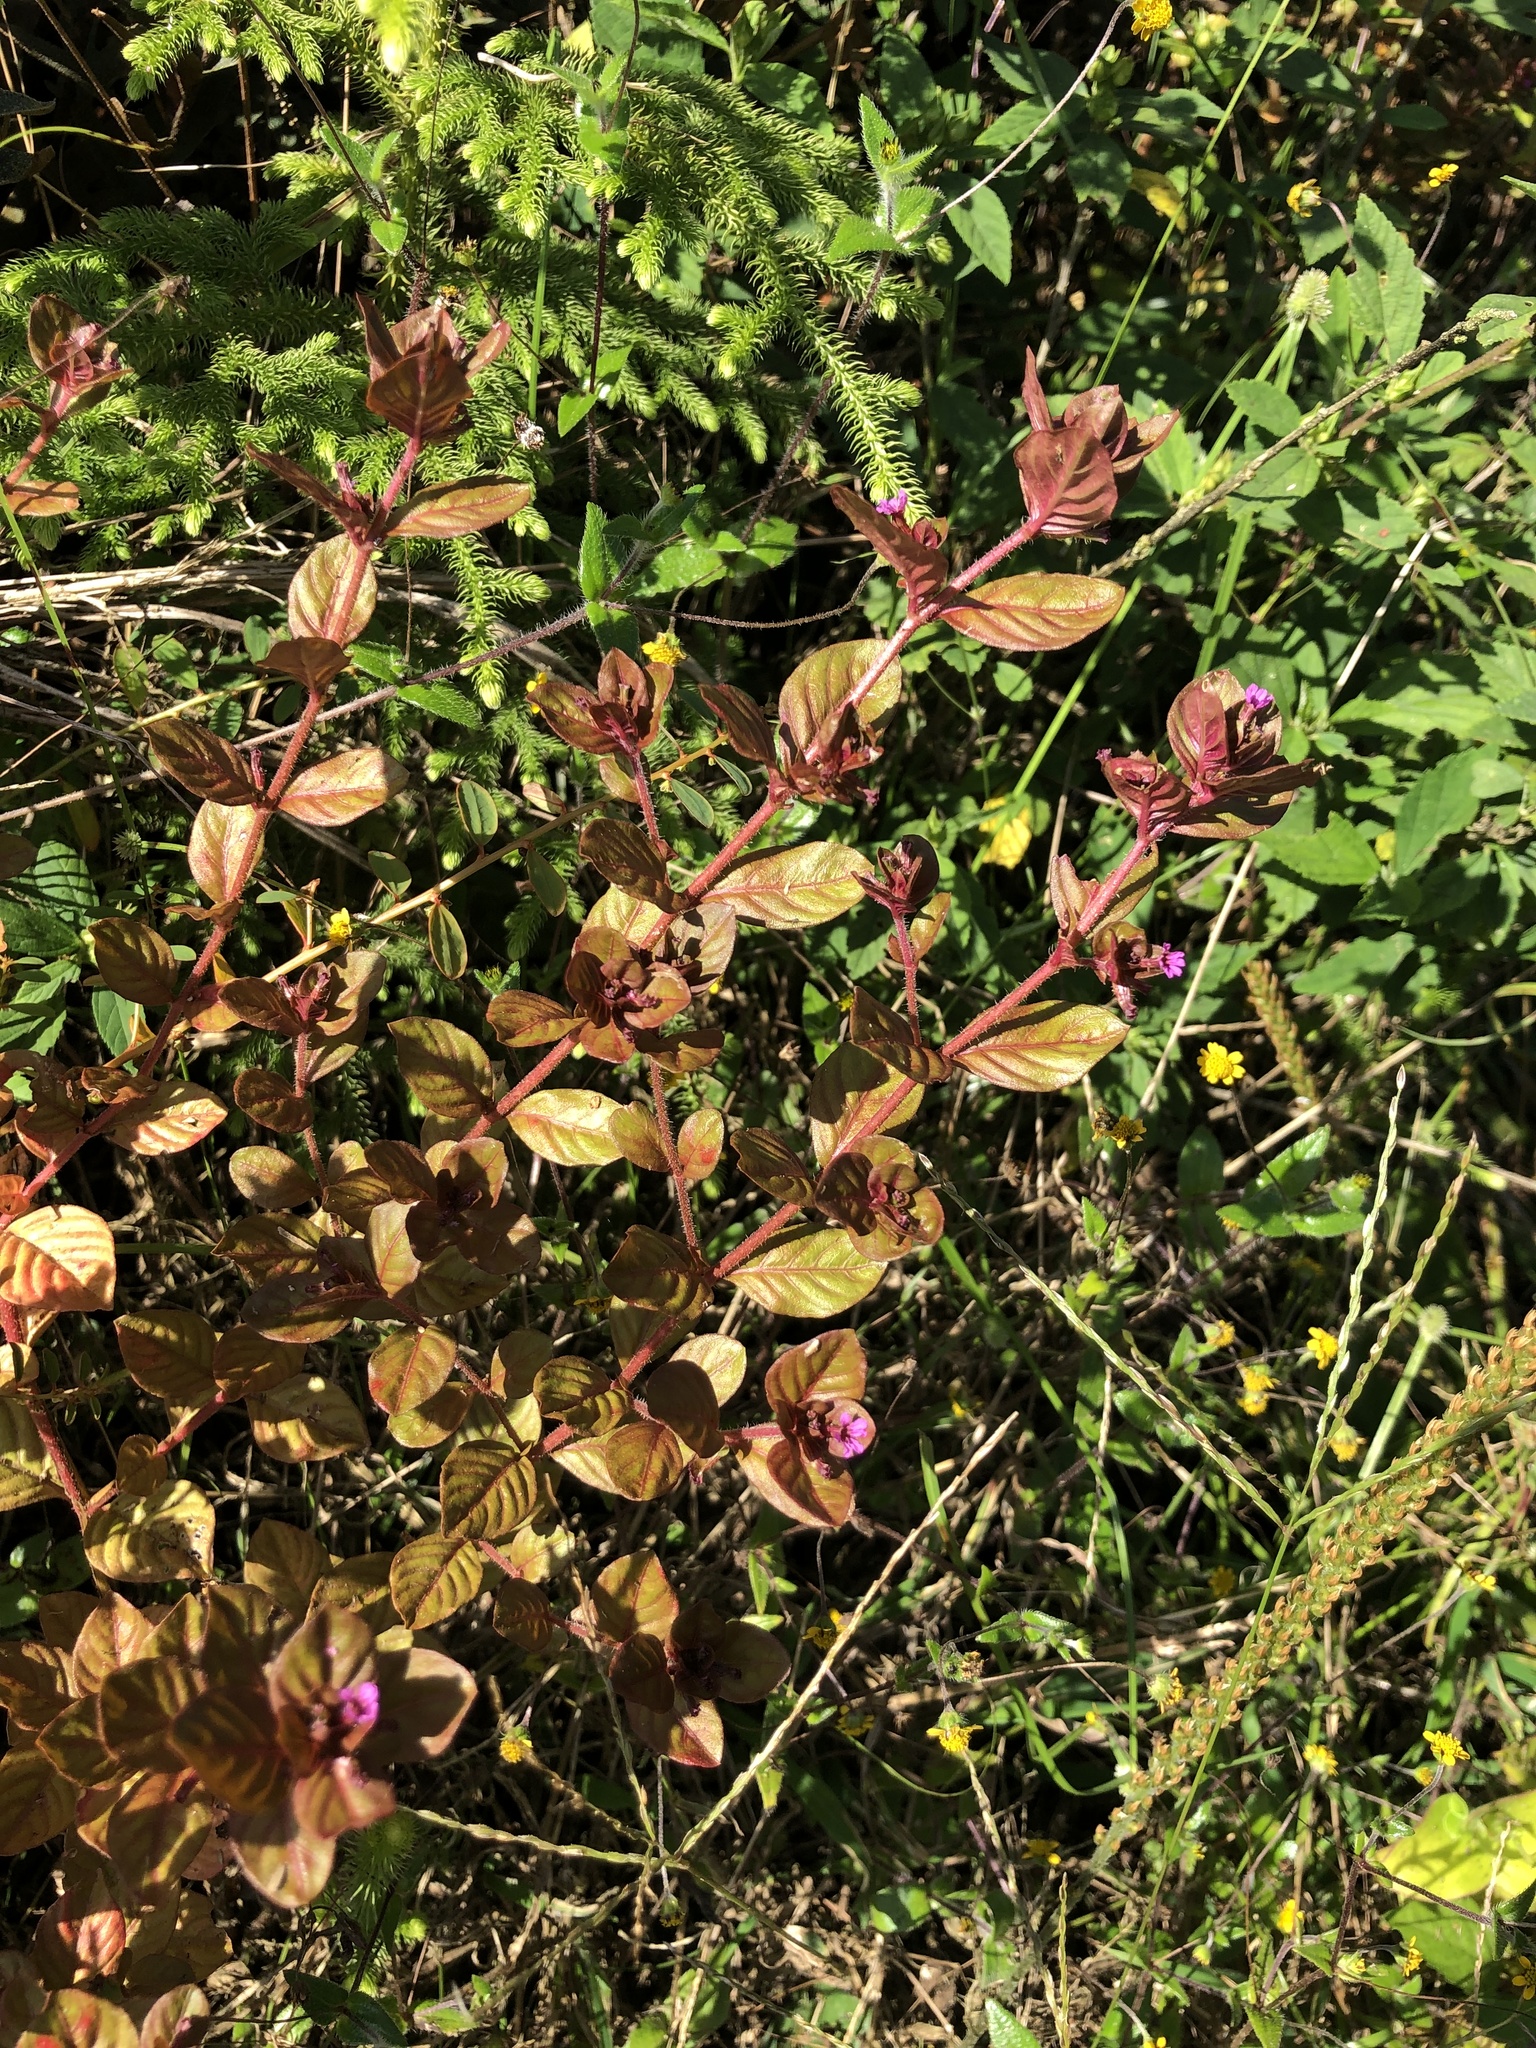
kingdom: Plantae
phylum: Tracheophyta
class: Magnoliopsida
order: Myrtales
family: Lythraceae
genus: Cuphea
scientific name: Cuphea carthagenensis
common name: Colombian waxweed
